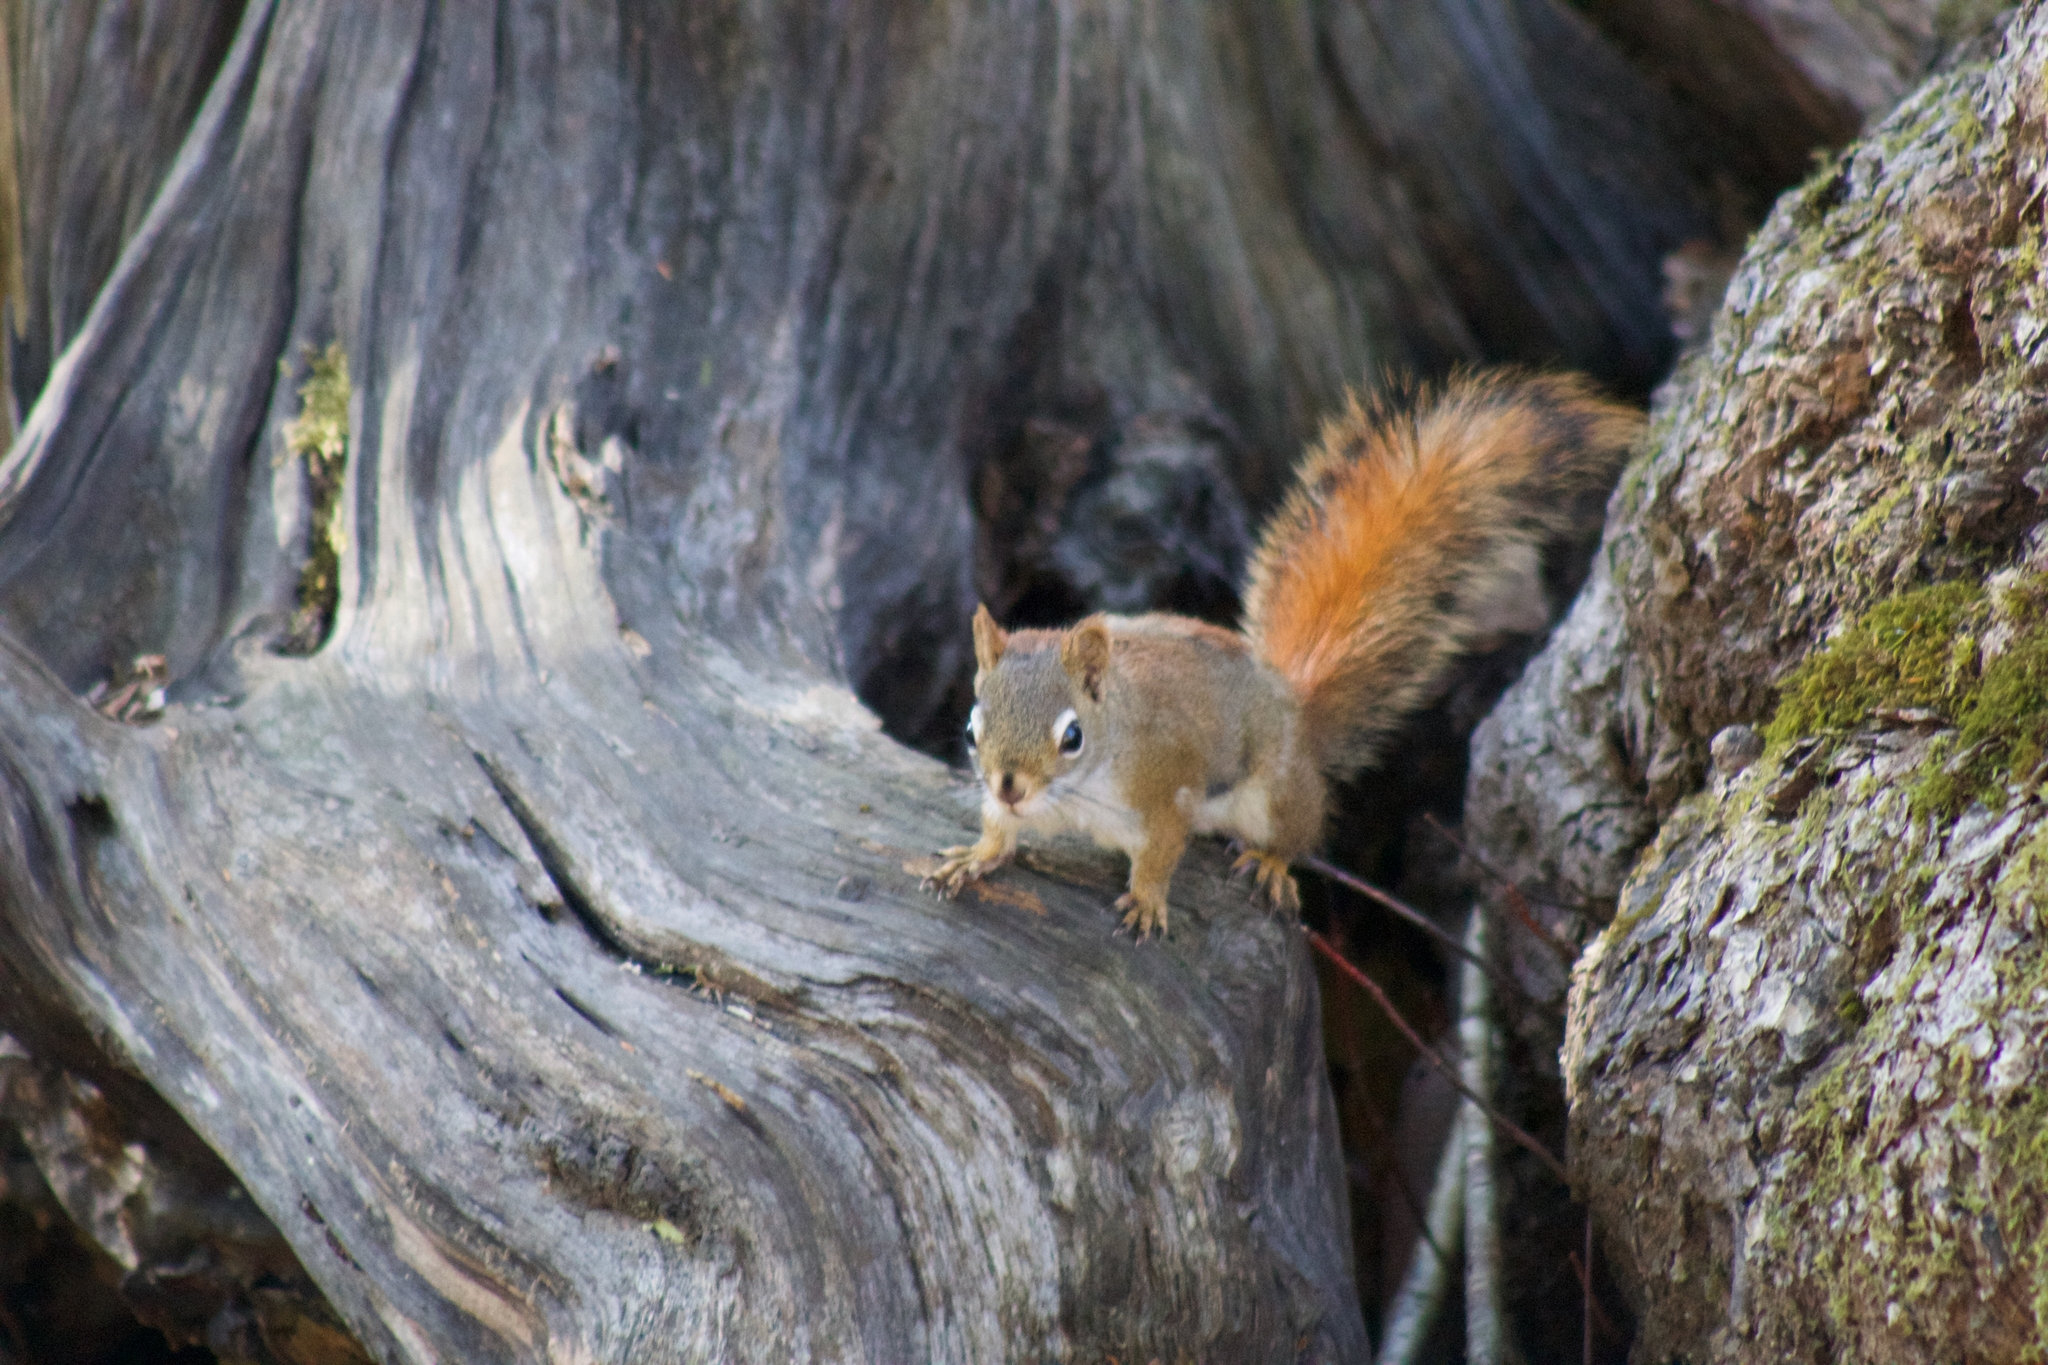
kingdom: Animalia
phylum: Chordata
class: Mammalia
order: Rodentia
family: Sciuridae
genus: Tamiasciurus
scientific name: Tamiasciurus hudsonicus
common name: Red squirrel
